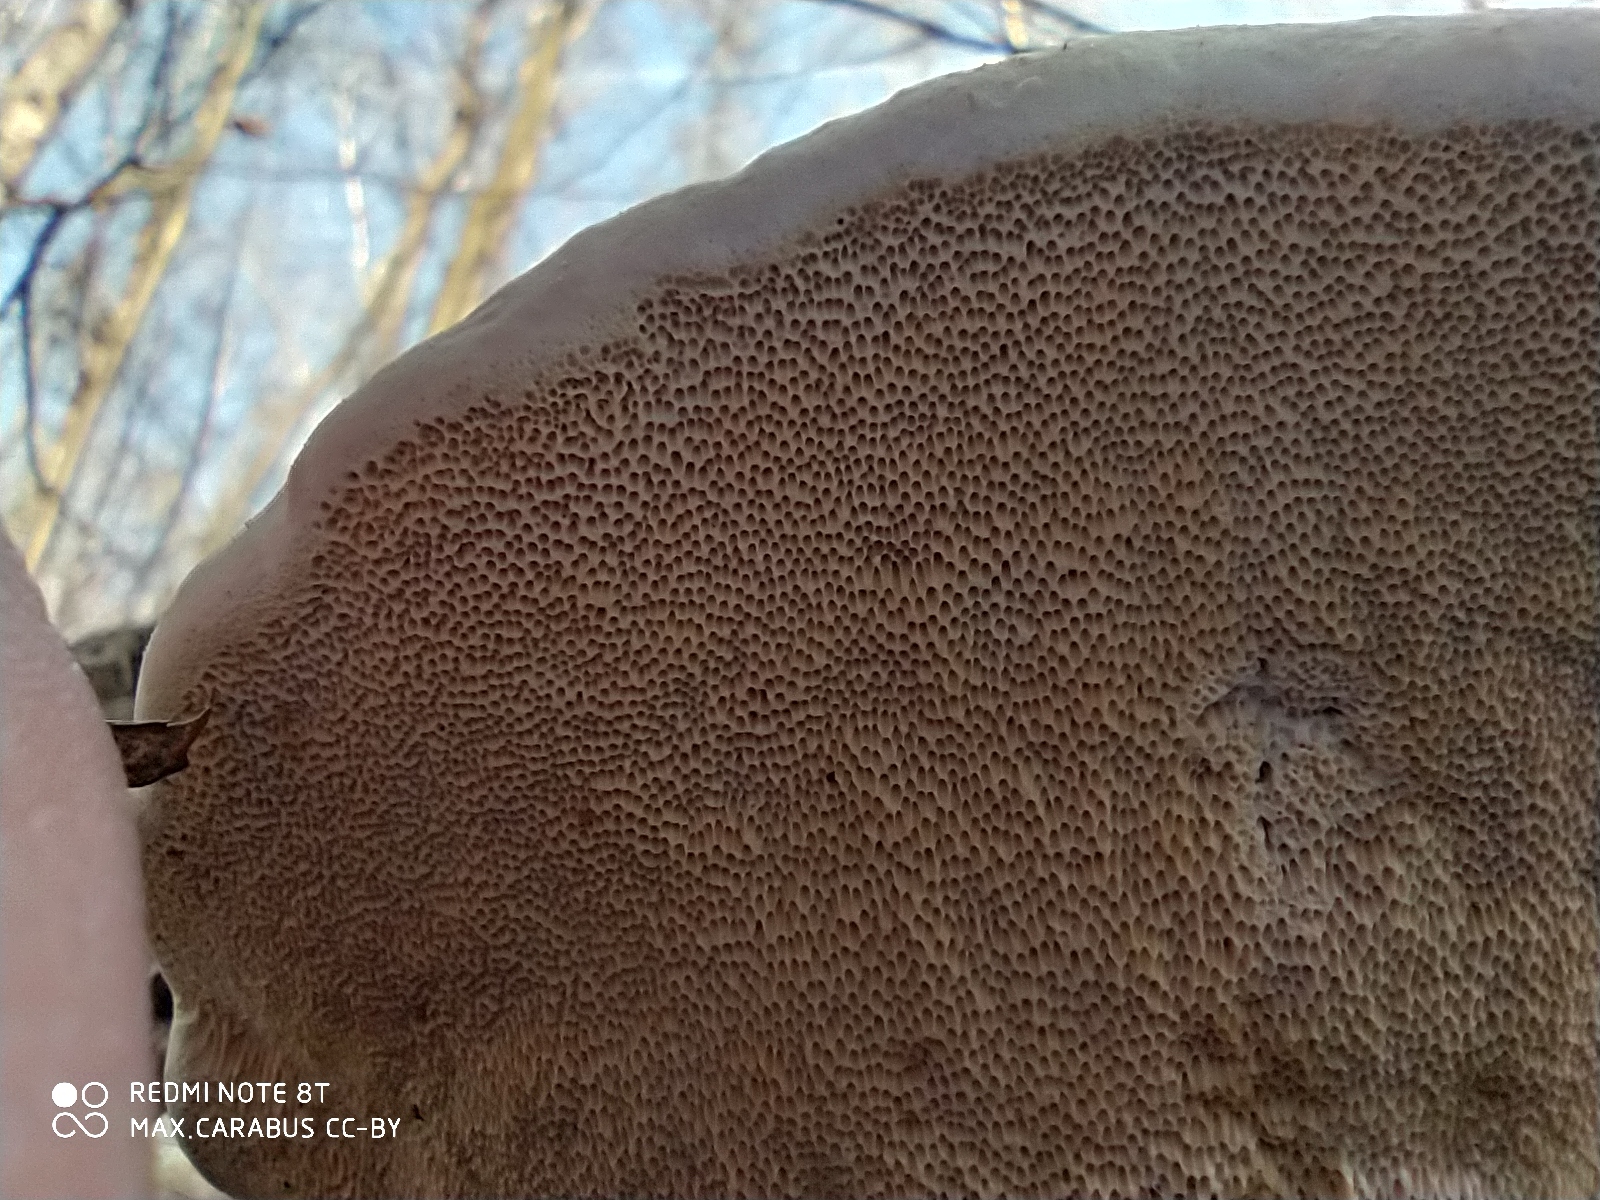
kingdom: Fungi
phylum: Basidiomycota
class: Agaricomycetes
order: Polyporales
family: Fomitopsidaceae
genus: Fomitopsis
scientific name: Fomitopsis pinicola
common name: Red-belted bracket
